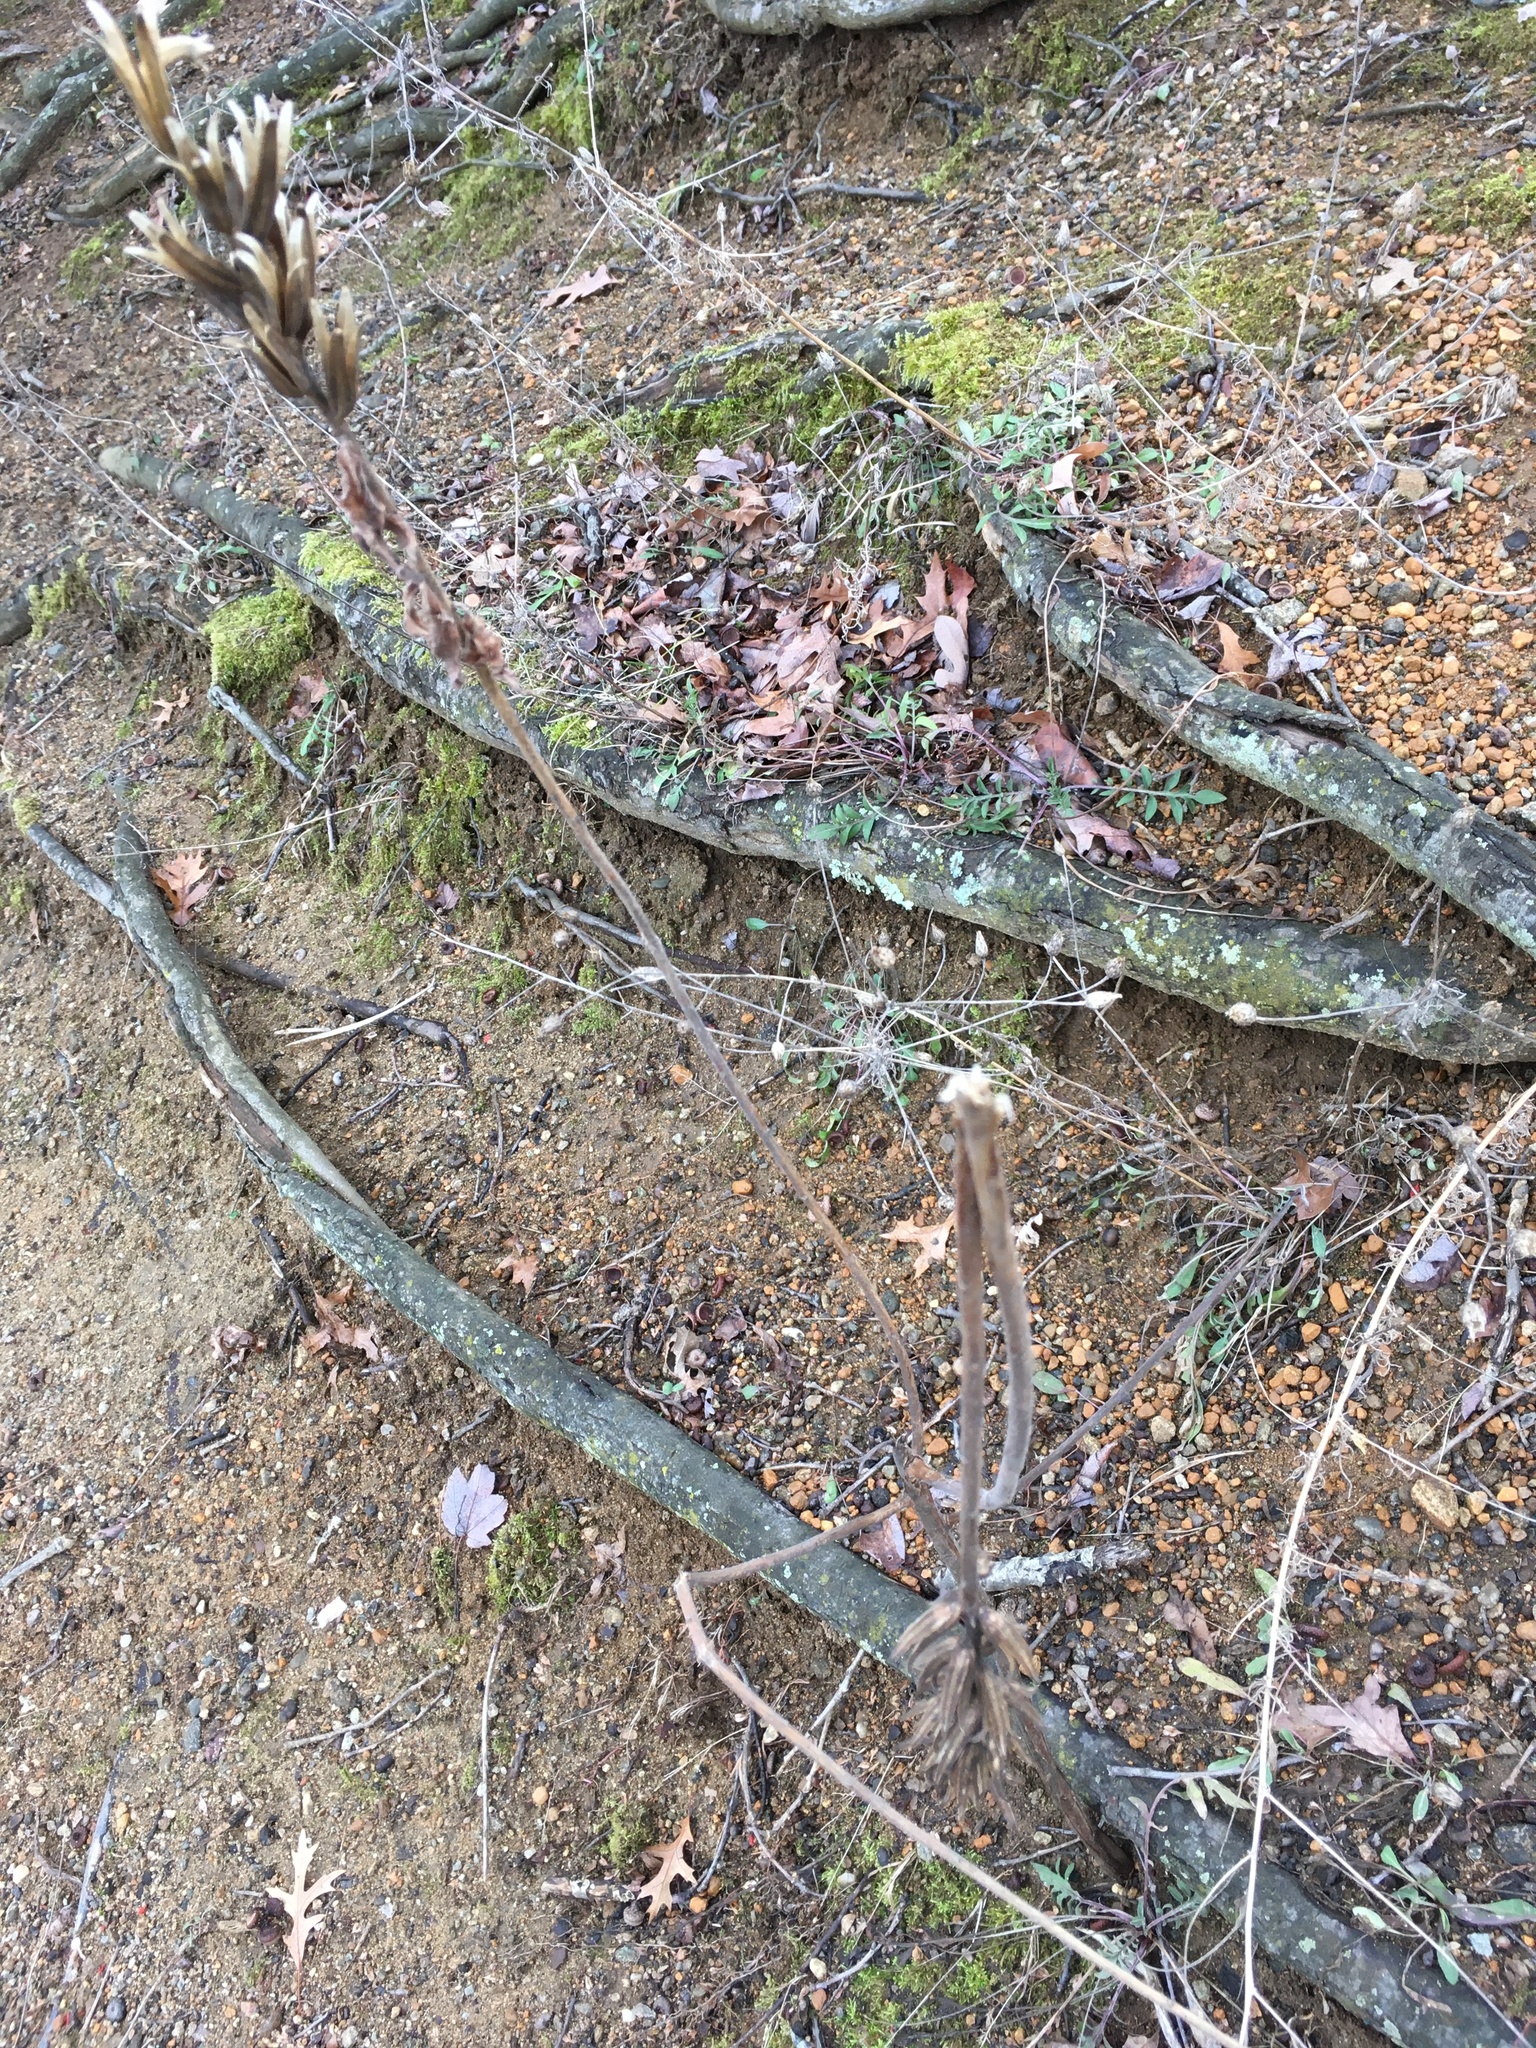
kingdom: Plantae
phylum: Tracheophyta
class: Magnoliopsida
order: Myrtales
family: Onagraceae
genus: Oenothera
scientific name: Oenothera biennis
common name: Common evening-primrose
